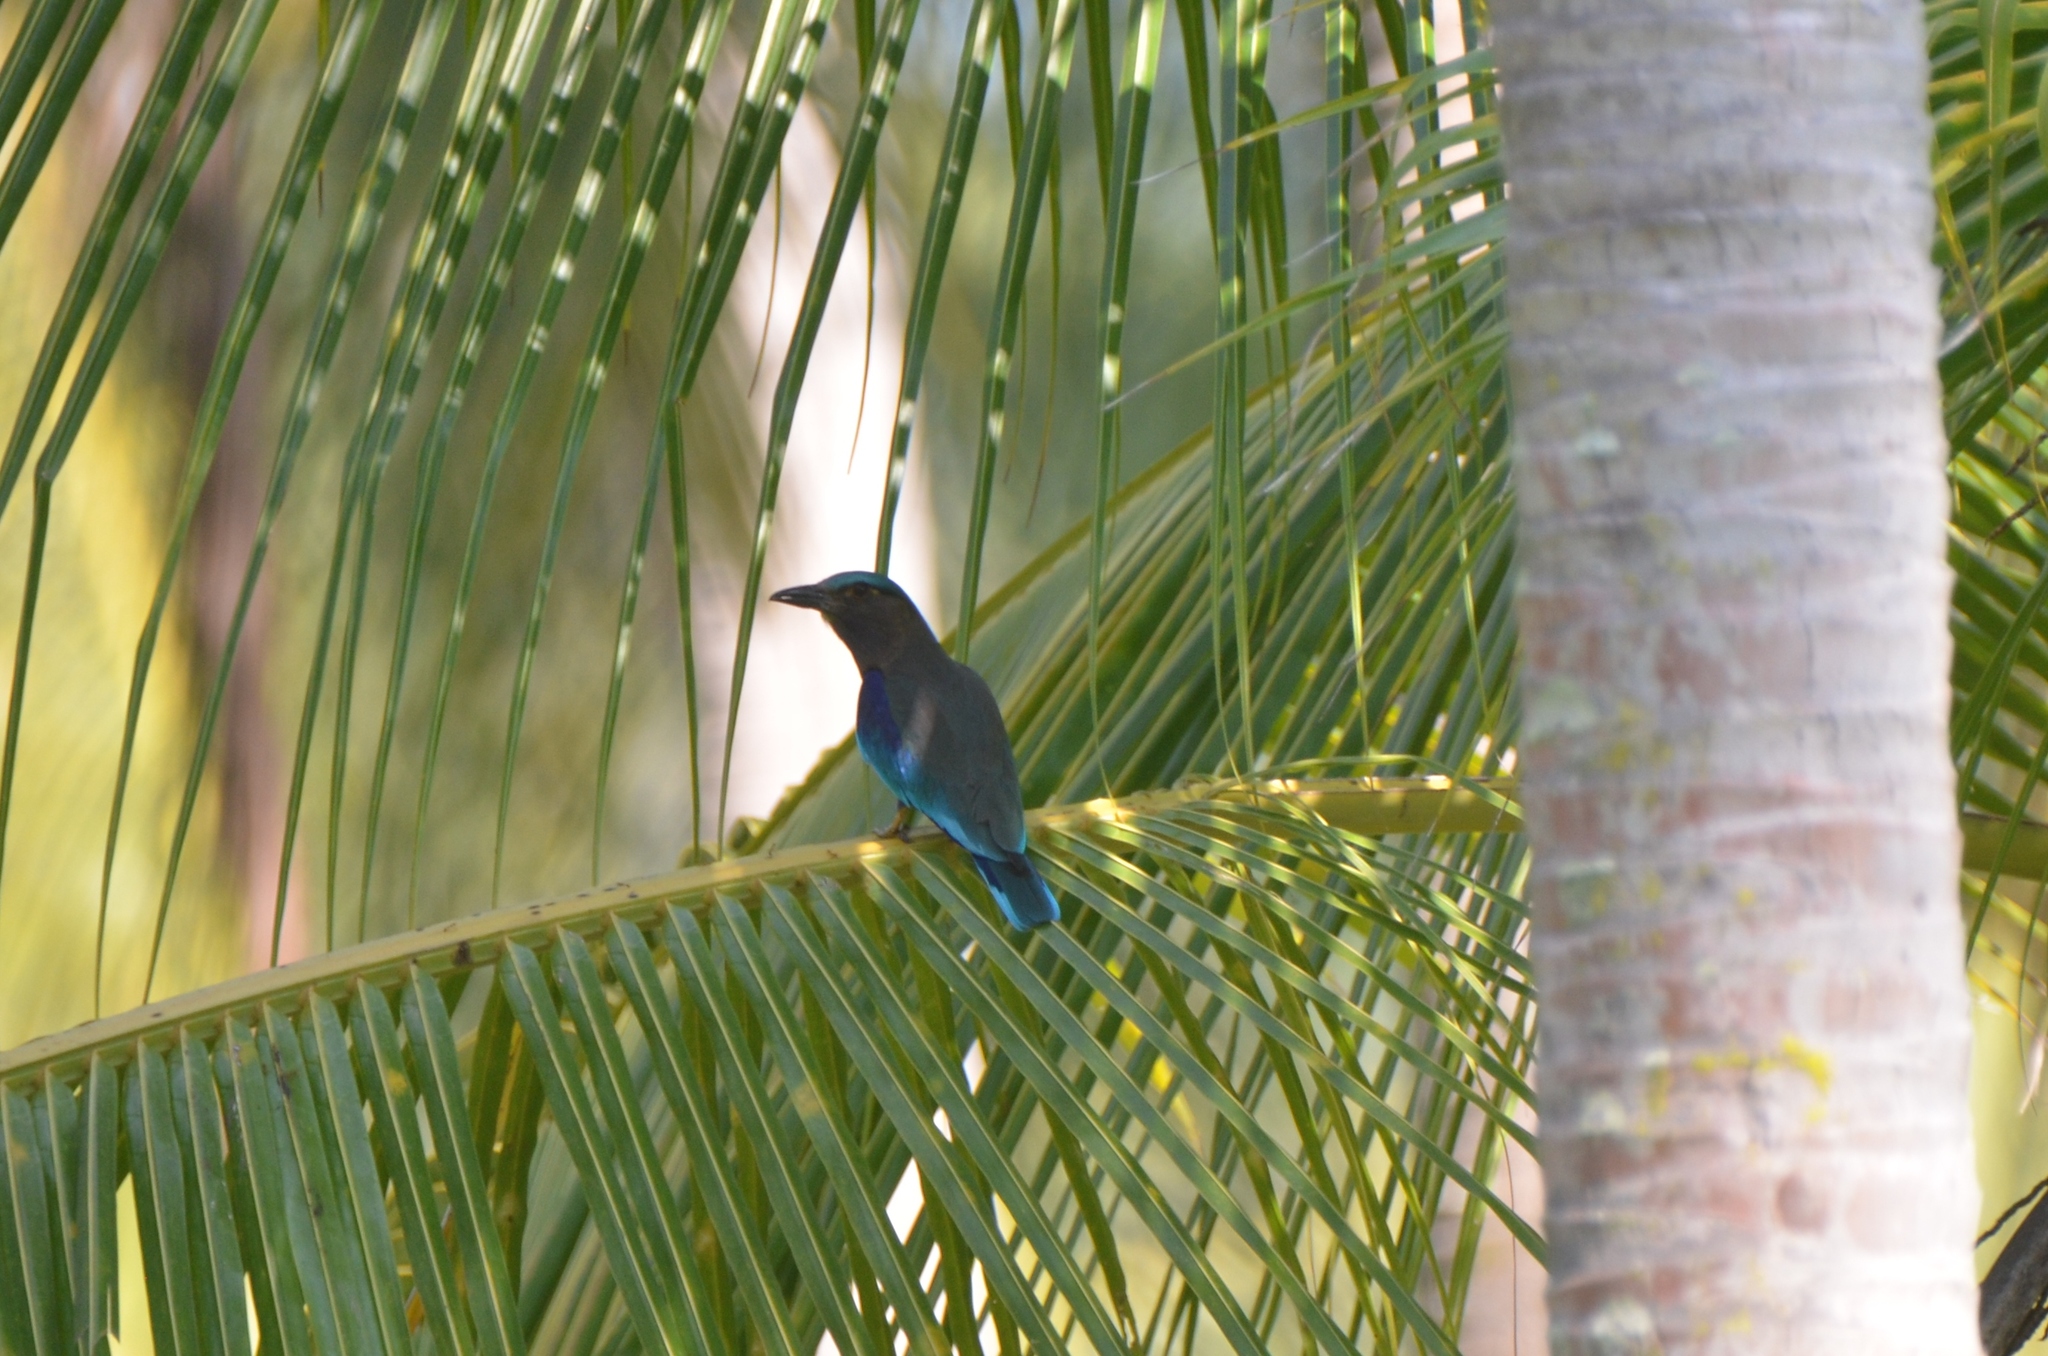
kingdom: Animalia
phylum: Chordata
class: Aves
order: Coraciiformes
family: Coraciidae
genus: Coracias
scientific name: Coracias affinis
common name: Indochinese roller
